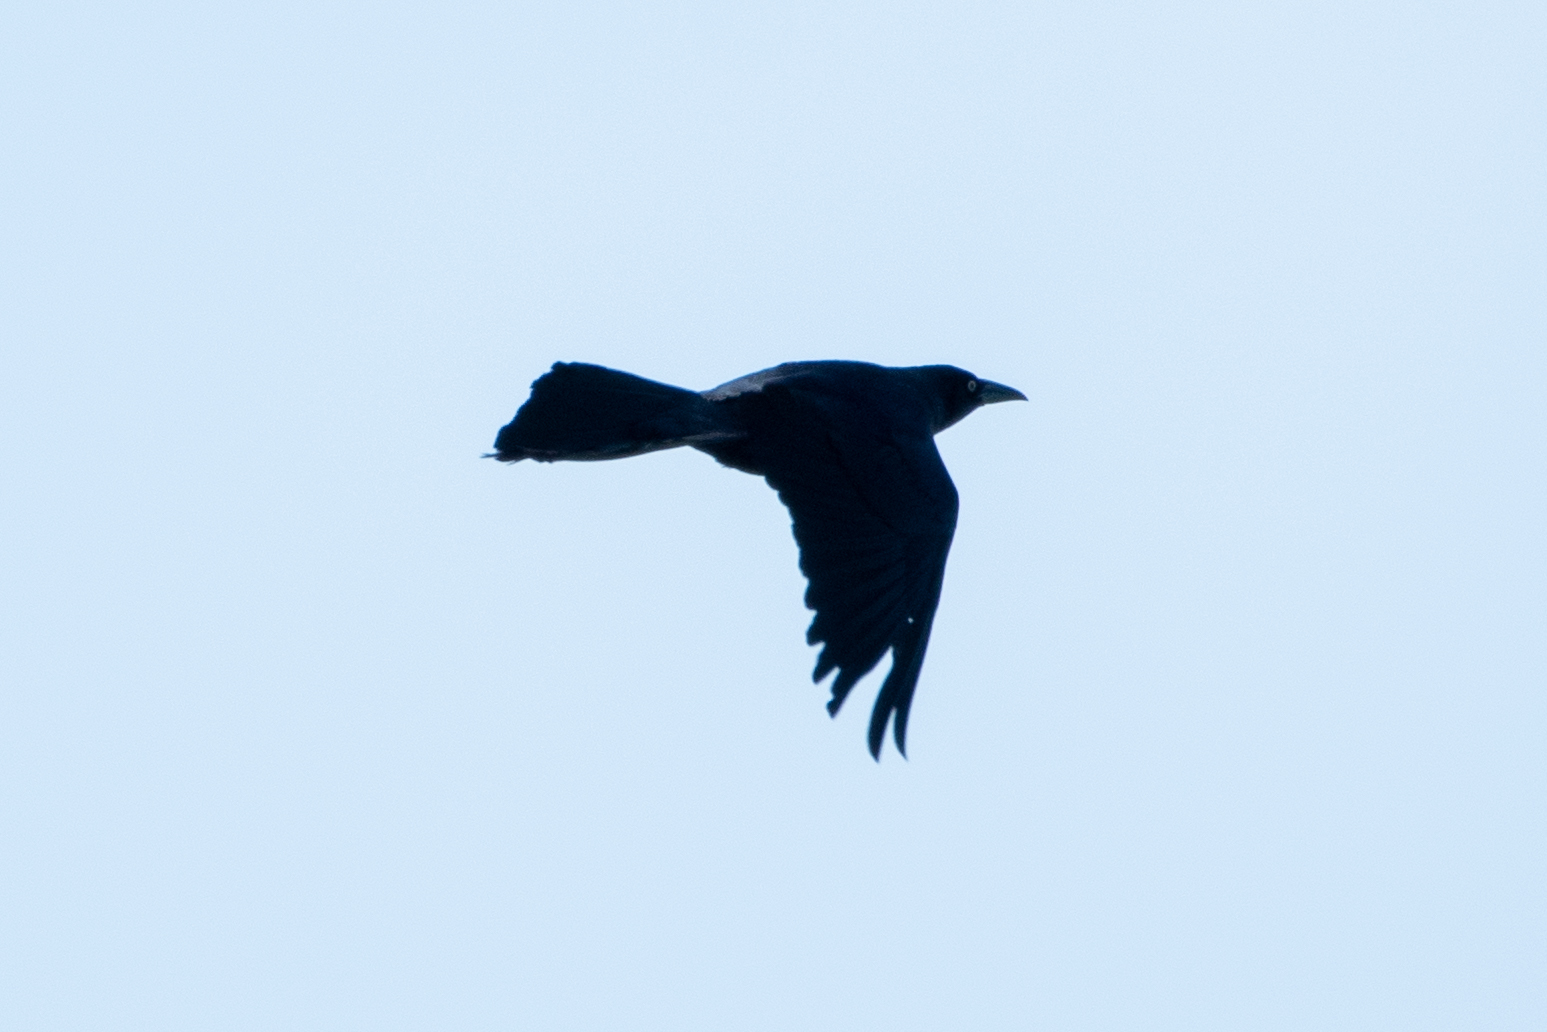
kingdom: Animalia
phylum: Chordata
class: Aves
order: Passeriformes
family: Icteridae
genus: Quiscalus
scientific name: Quiscalus mexicanus
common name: Great-tailed grackle
